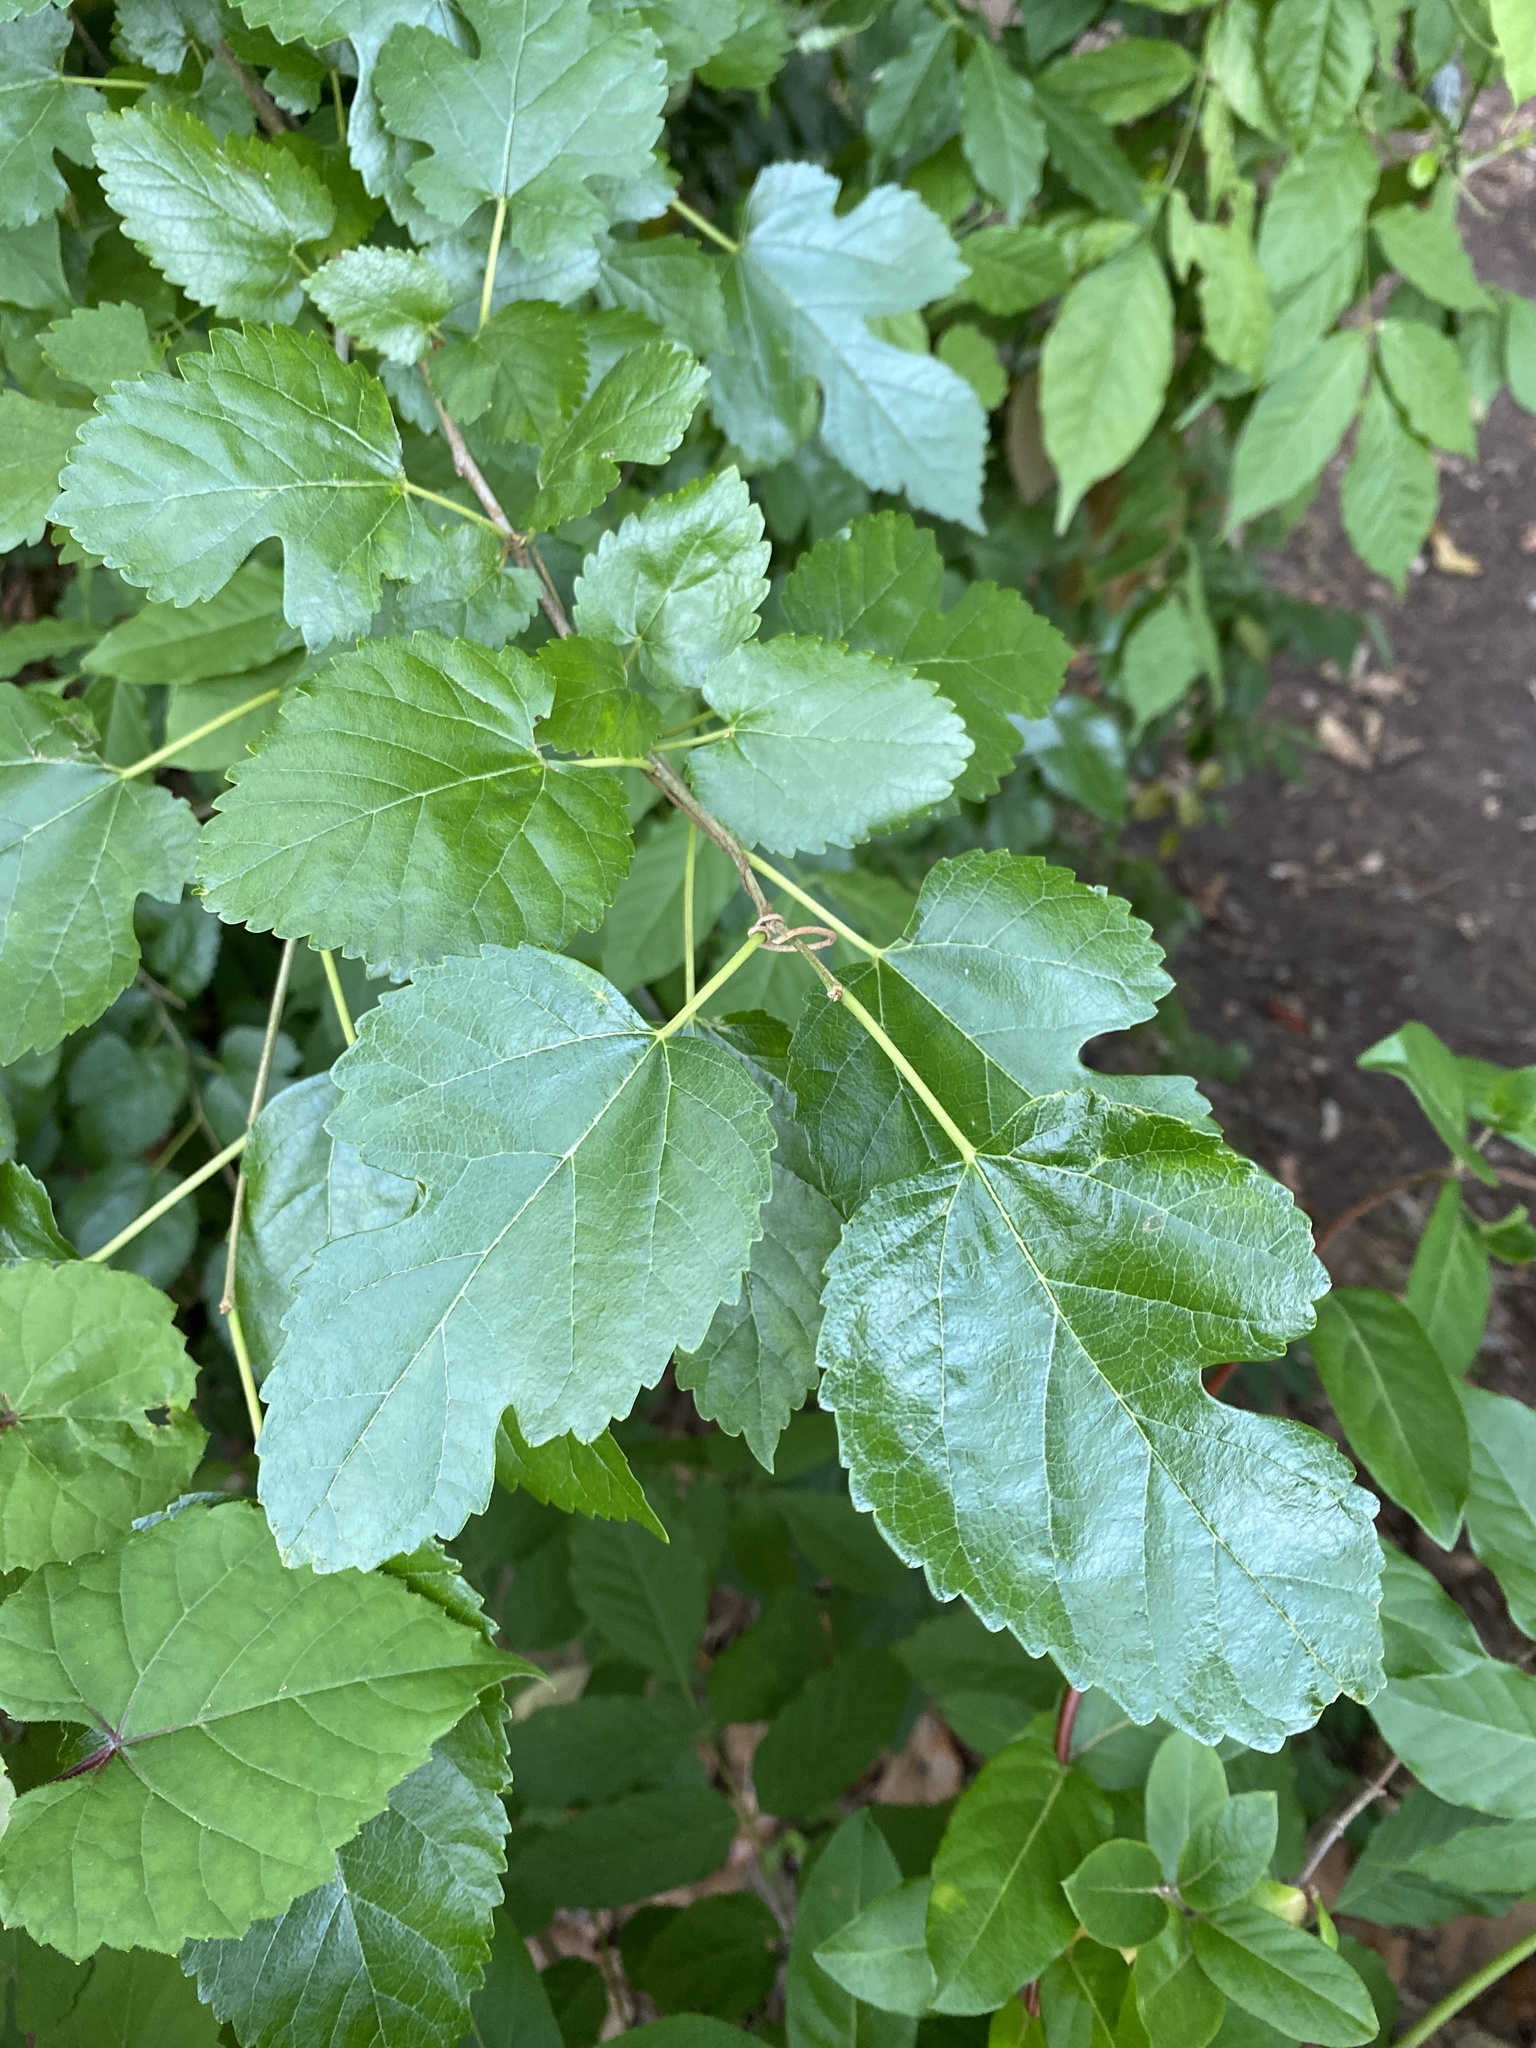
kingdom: Plantae
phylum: Tracheophyta
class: Magnoliopsida
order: Rosales
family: Moraceae
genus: Morus
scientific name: Morus alba
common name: White mulberry
